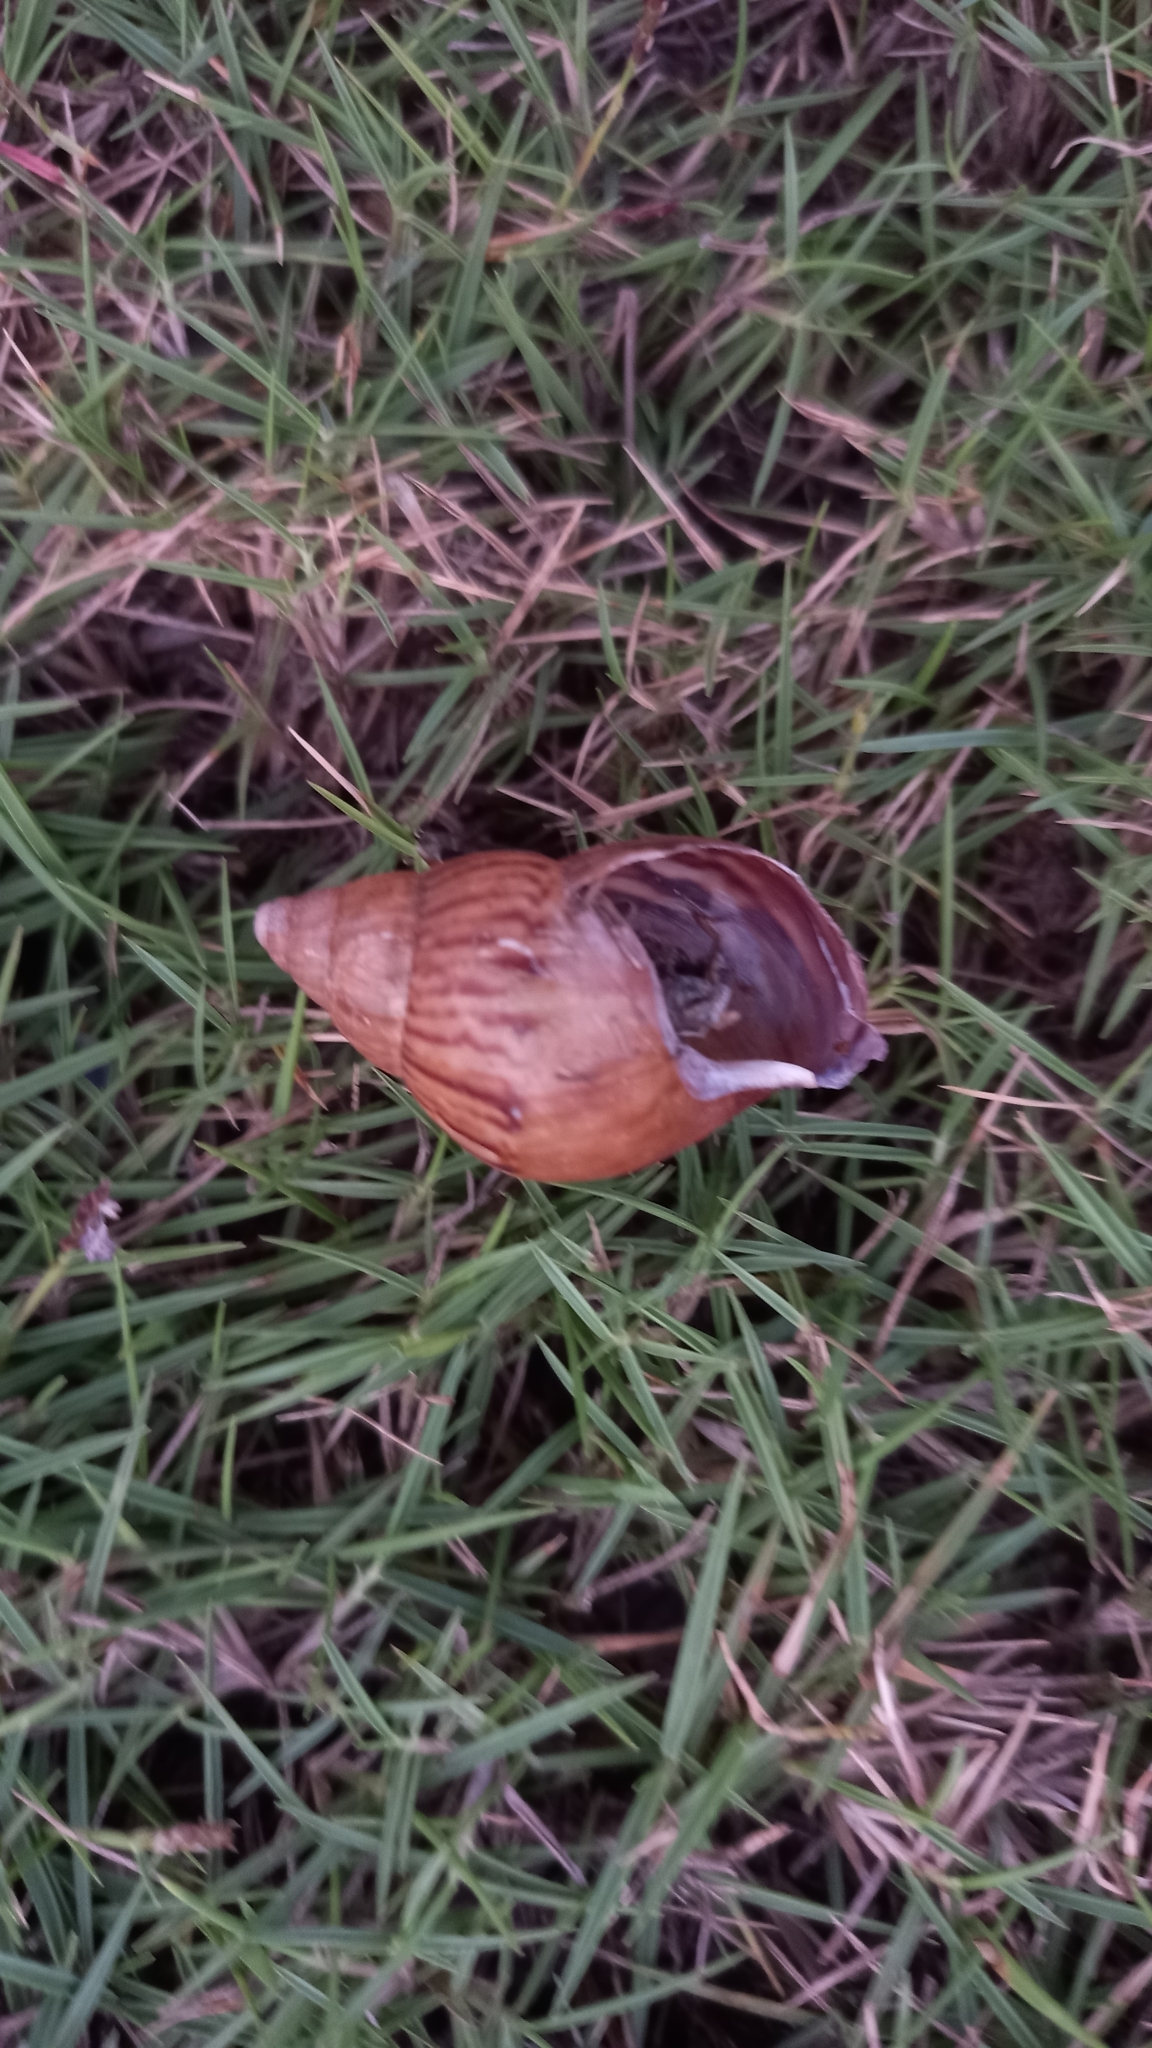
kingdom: Animalia
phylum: Mollusca
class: Gastropoda
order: Stylommatophora
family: Achatinidae
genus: Lissachatina
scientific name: Lissachatina fulica
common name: Giant african snail
